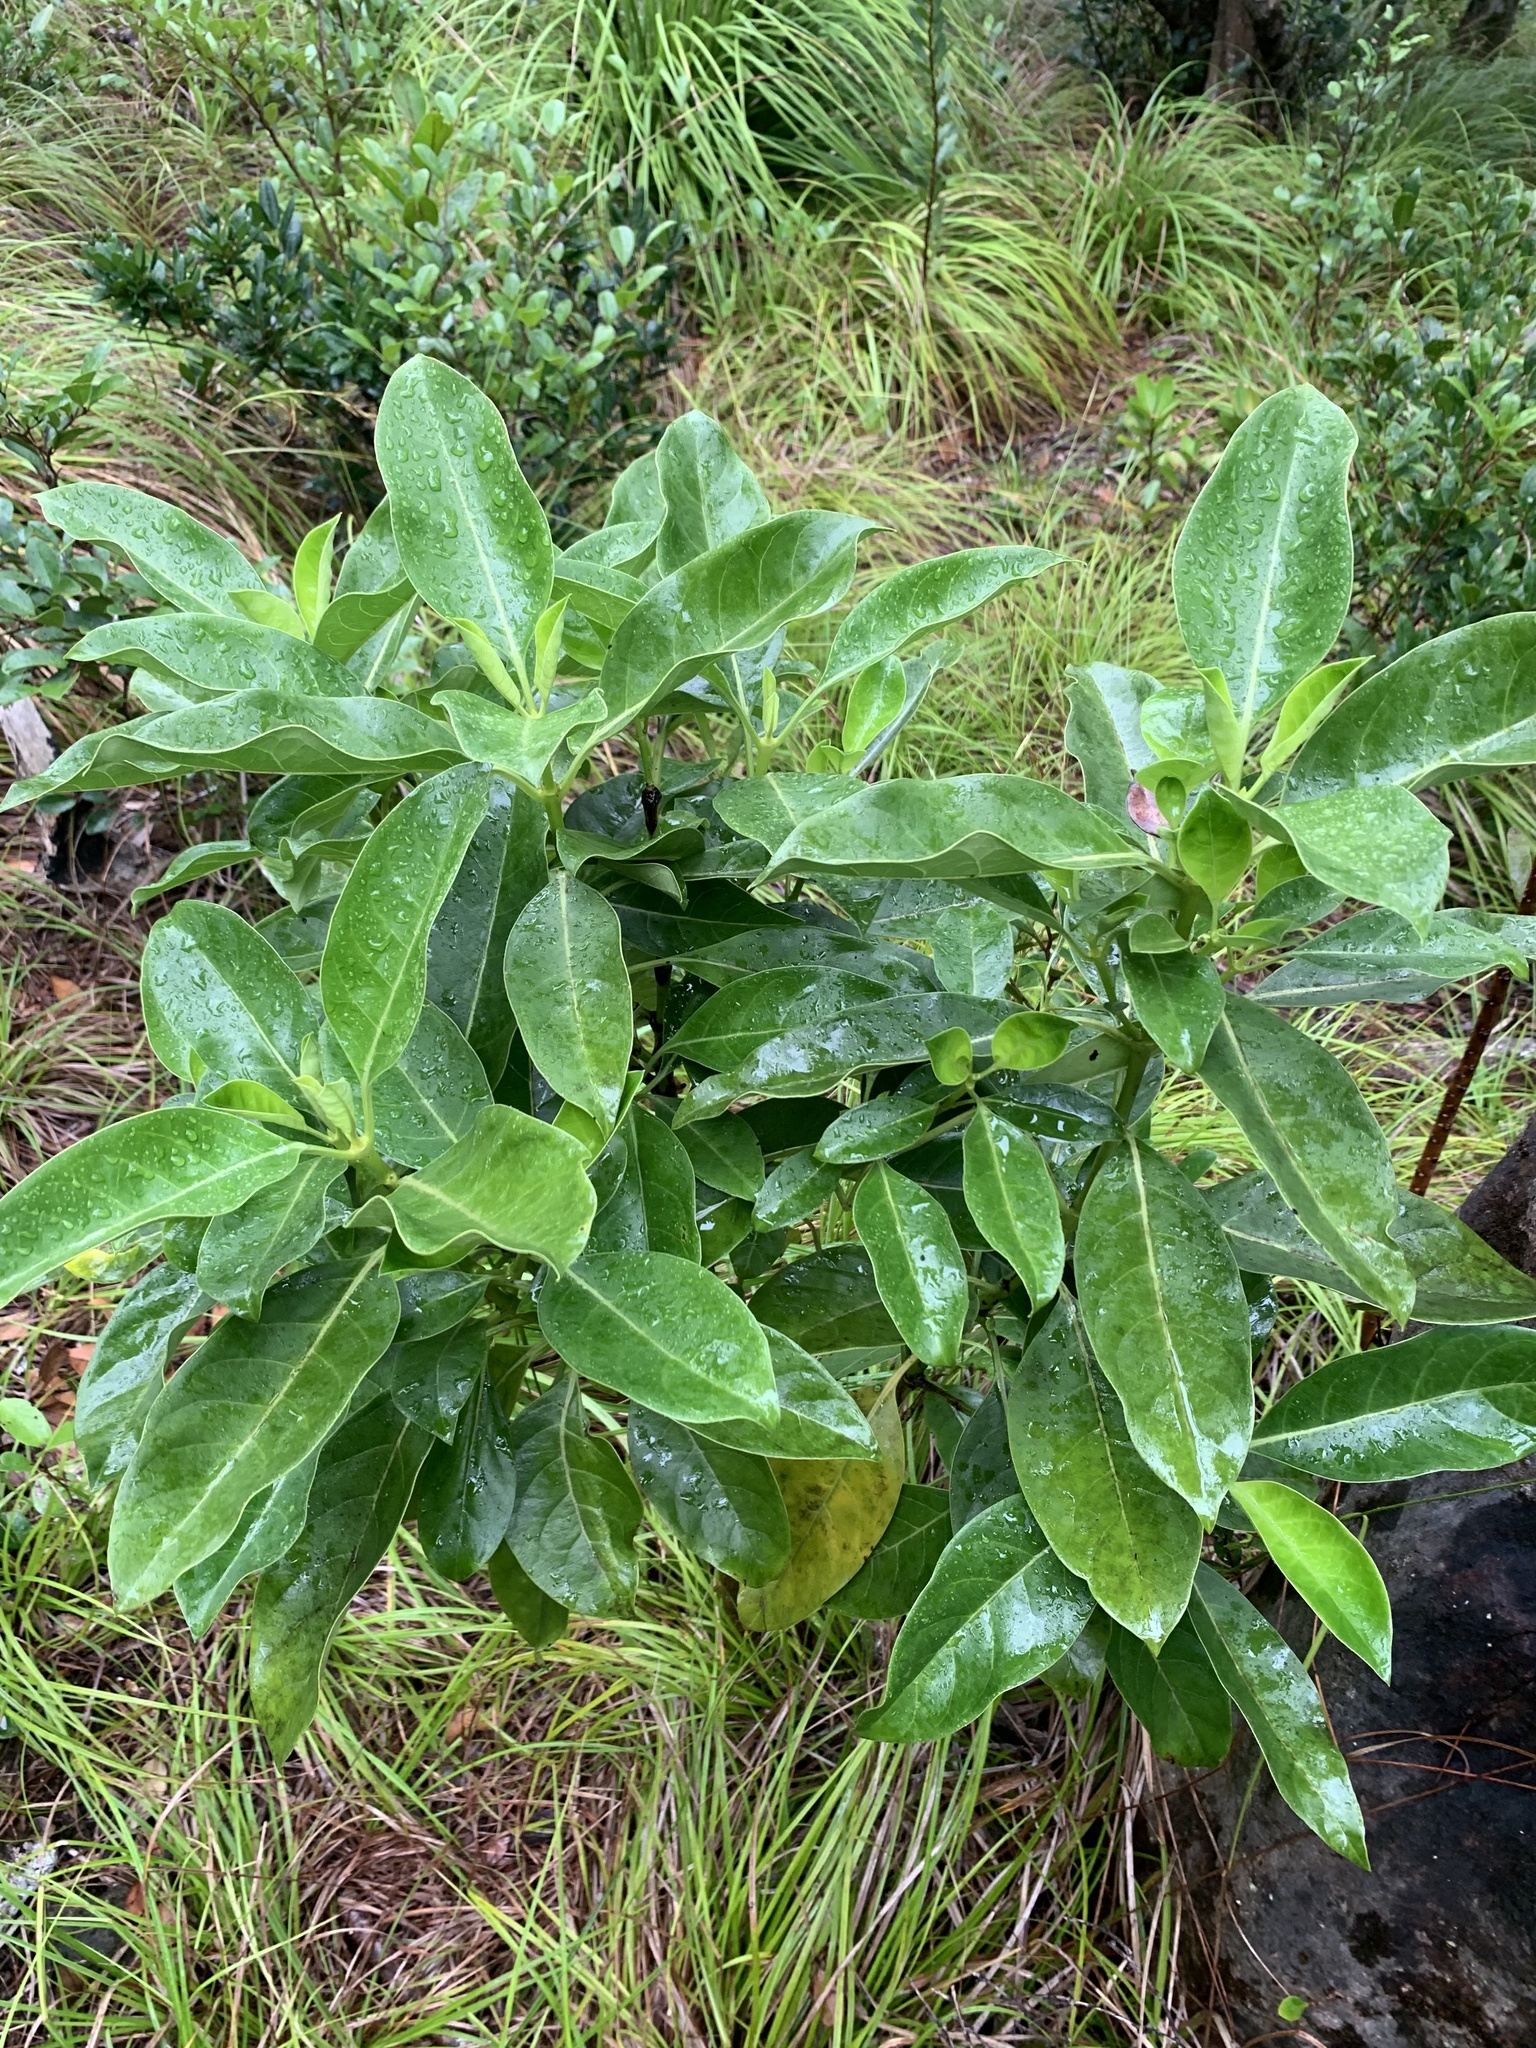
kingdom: Plantae
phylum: Tracheophyta
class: Magnoliopsida
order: Gentianales
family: Loganiaceae
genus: Geniostoma
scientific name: Geniostoma fagraeoides
